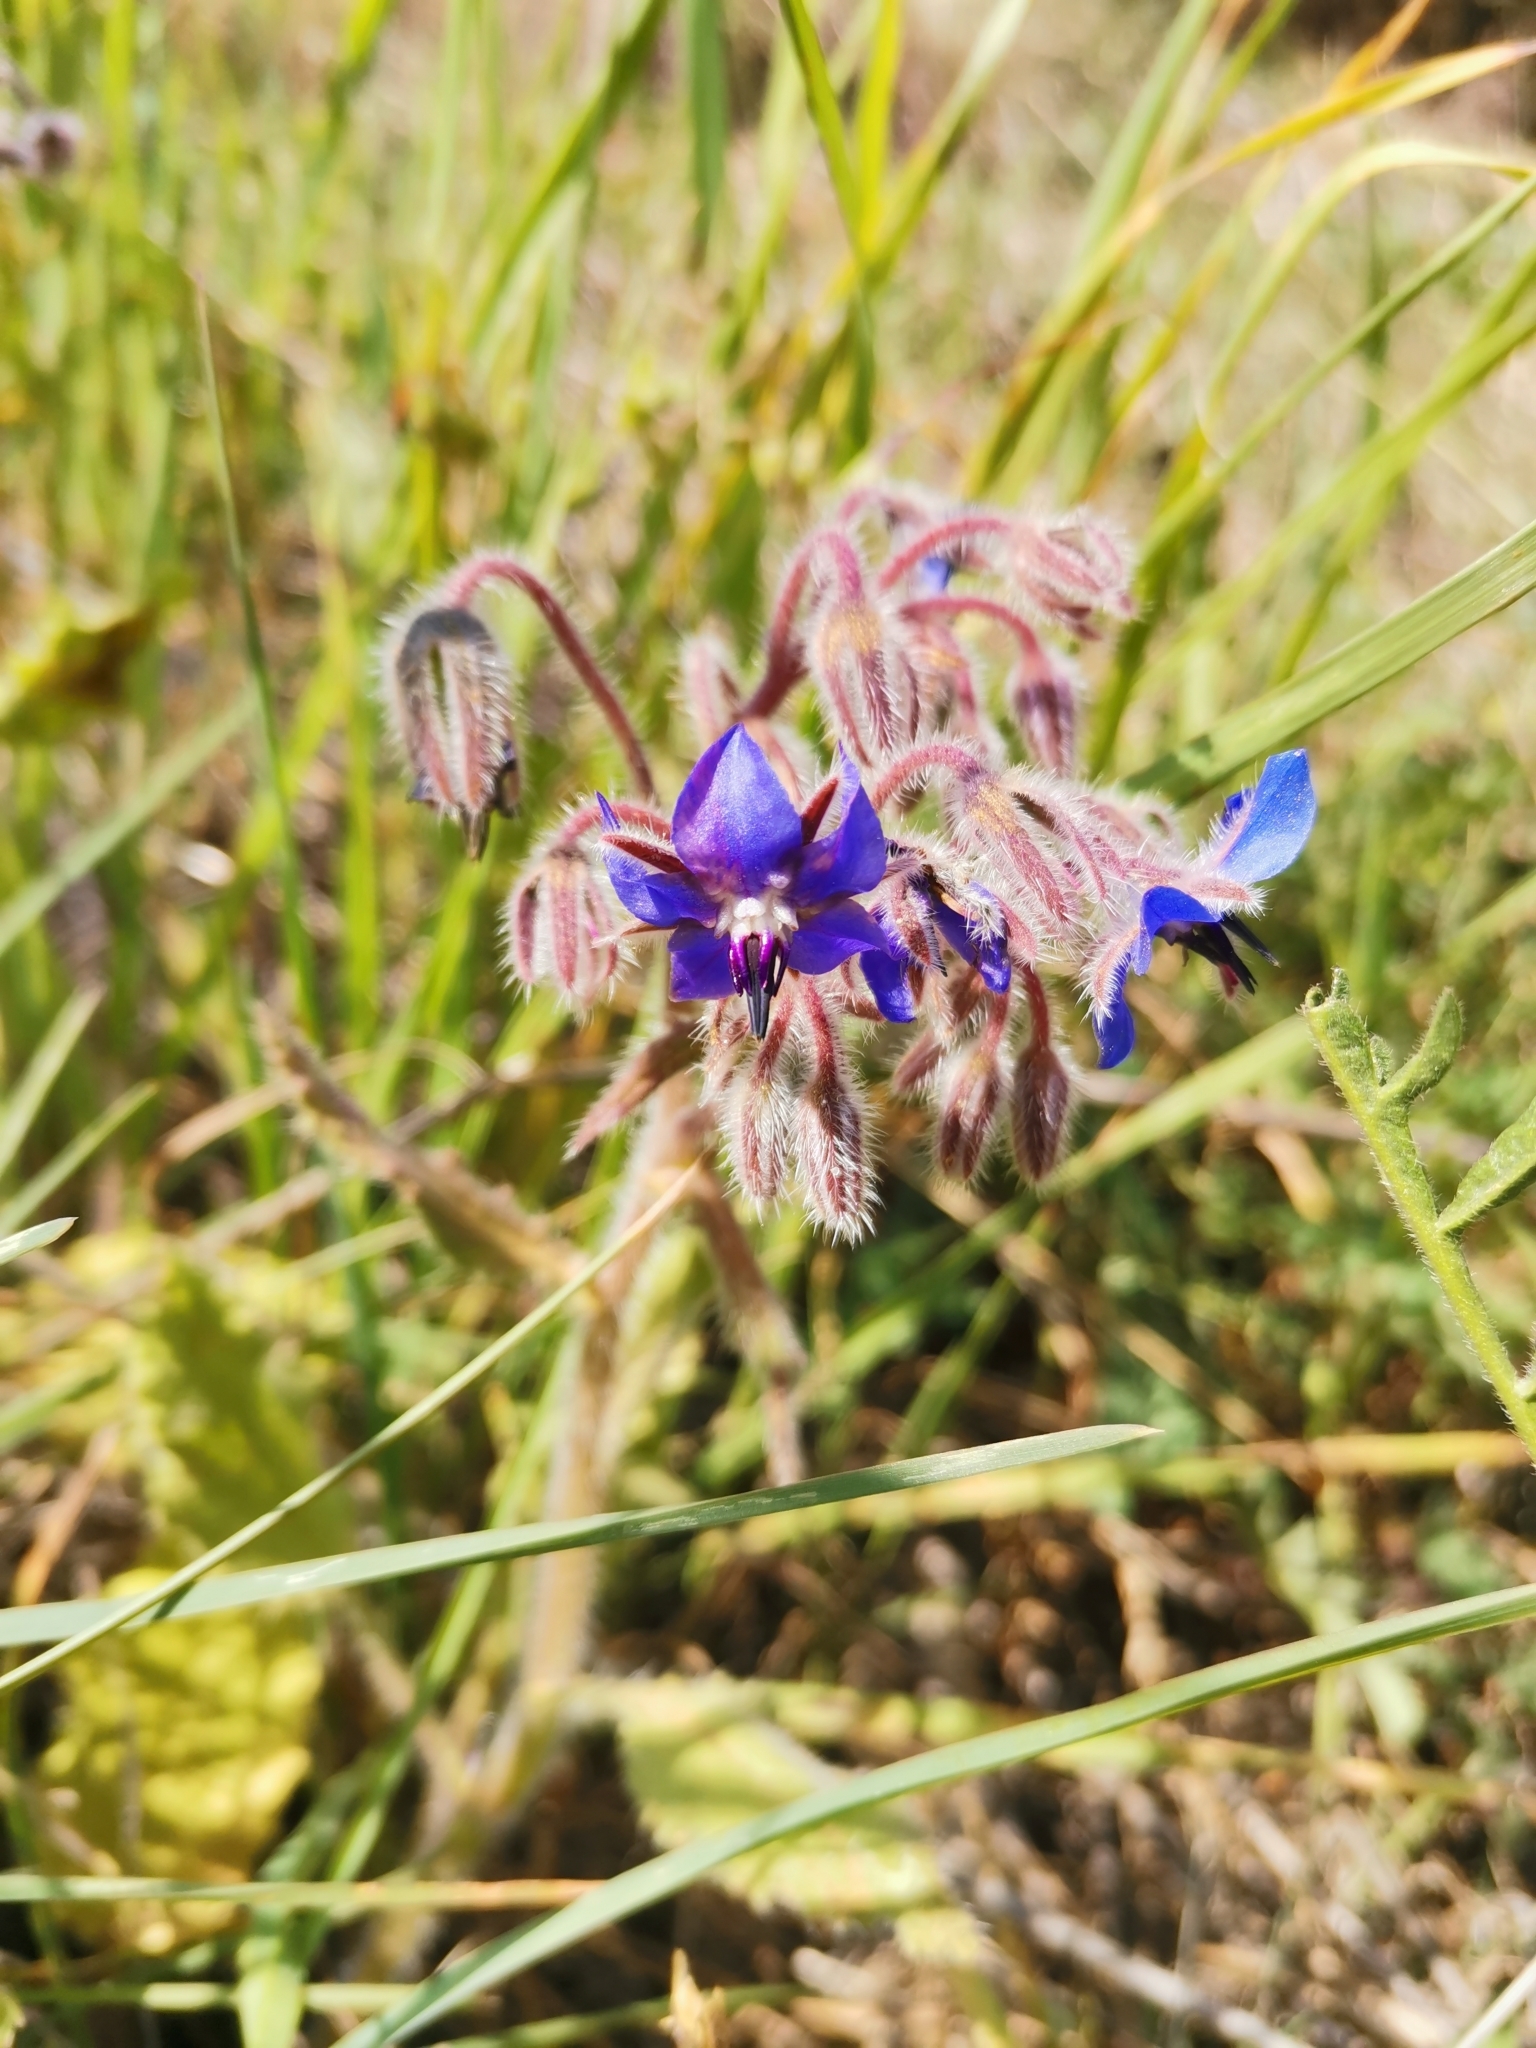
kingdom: Plantae
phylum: Tracheophyta
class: Magnoliopsida
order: Boraginales
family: Boraginaceae
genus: Borago
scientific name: Borago officinalis
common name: Borage
